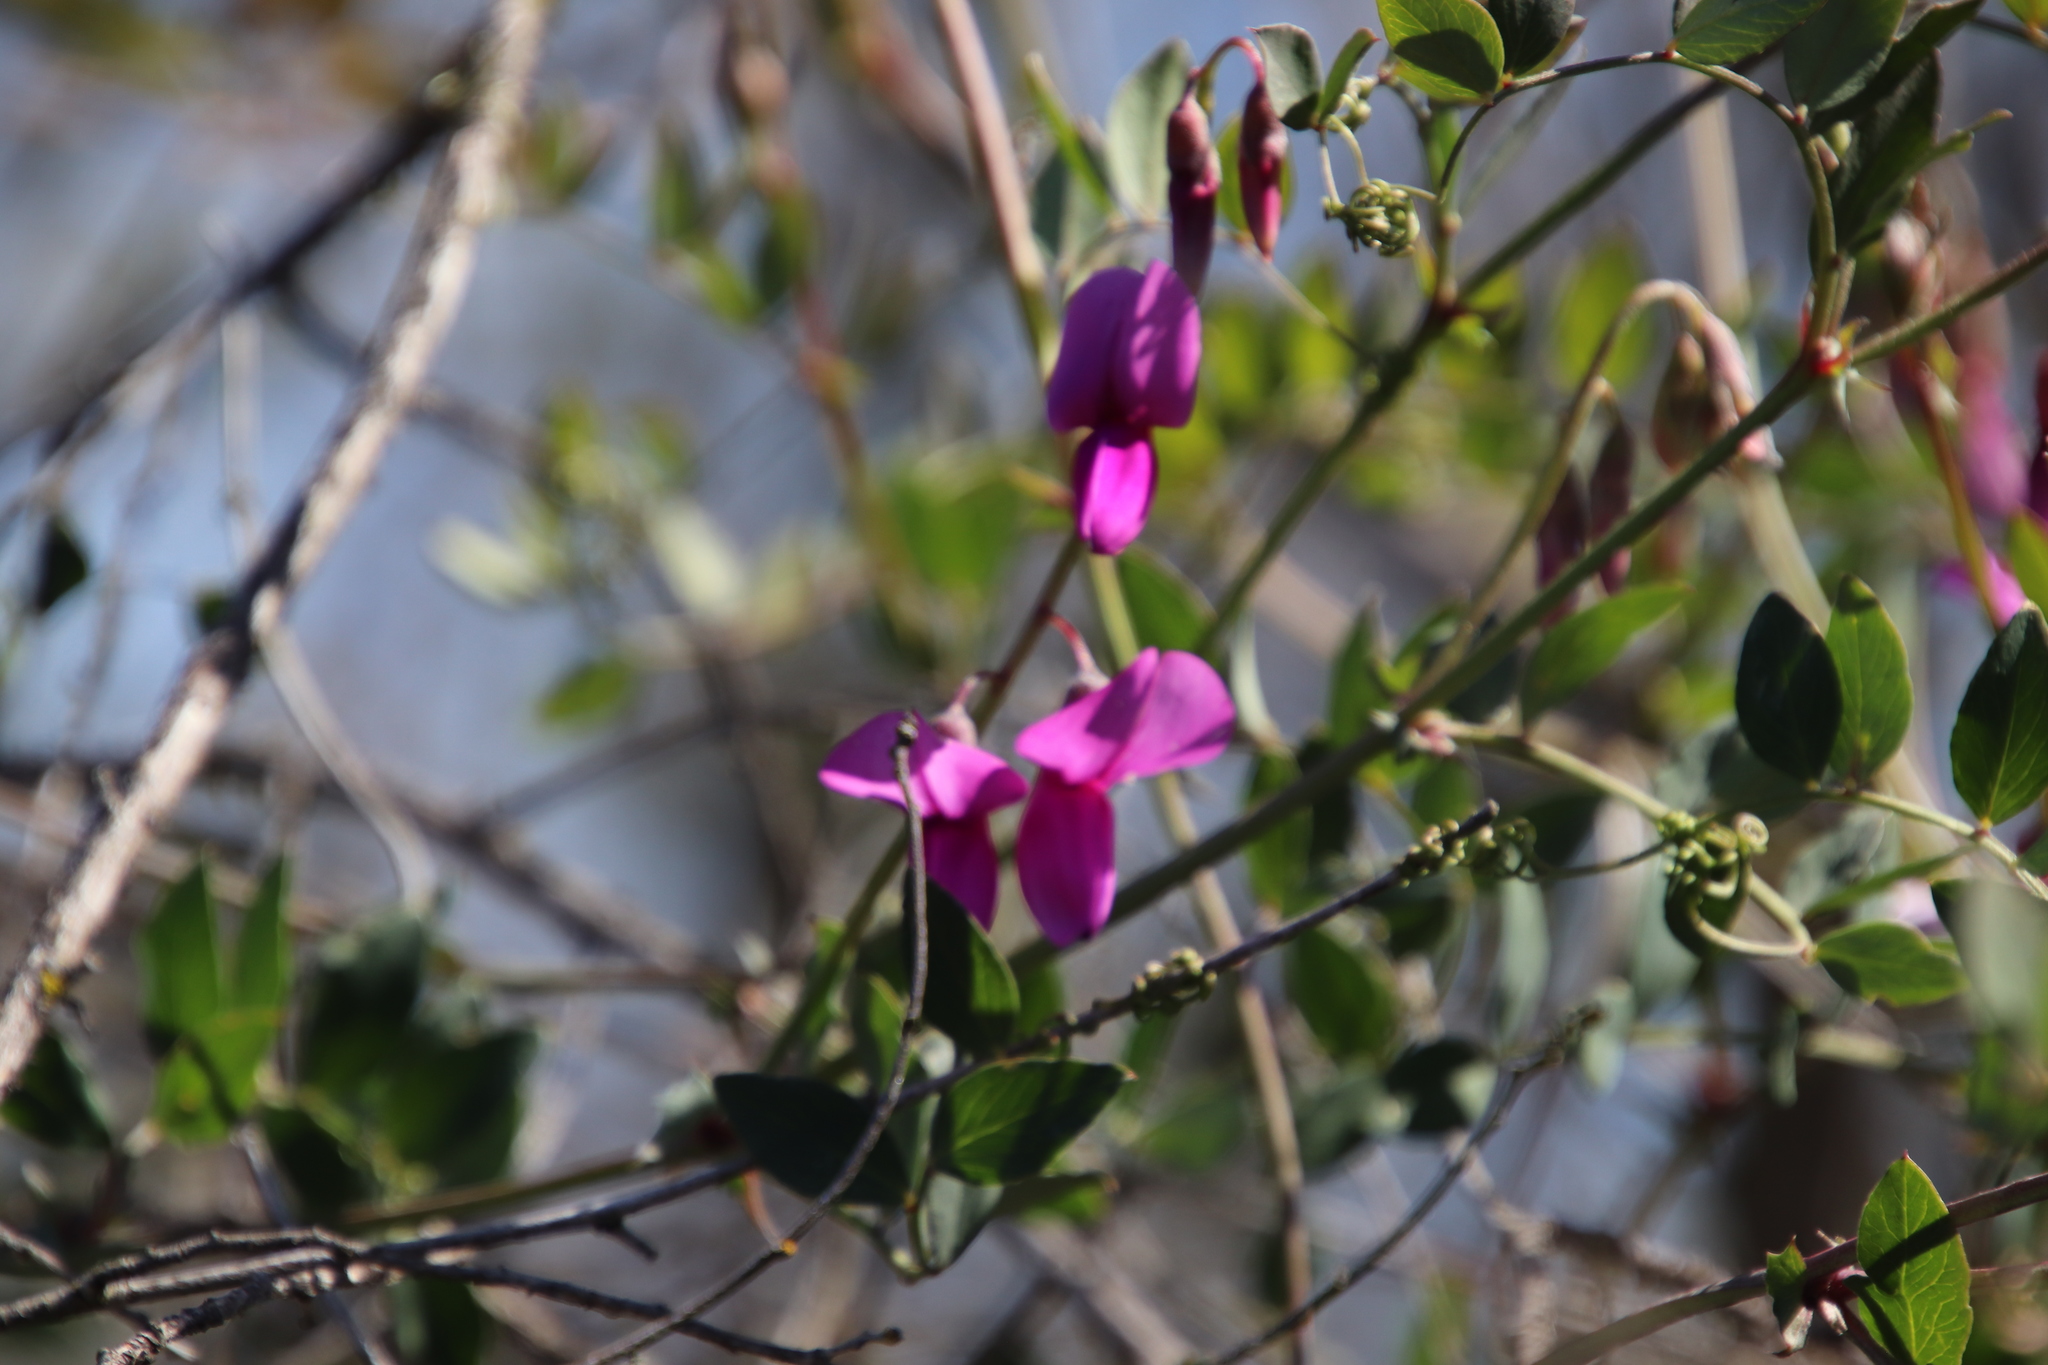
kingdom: Plantae
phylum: Tracheophyta
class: Magnoliopsida
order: Fabales
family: Fabaceae
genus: Lathyrus
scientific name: Lathyrus vestitus
